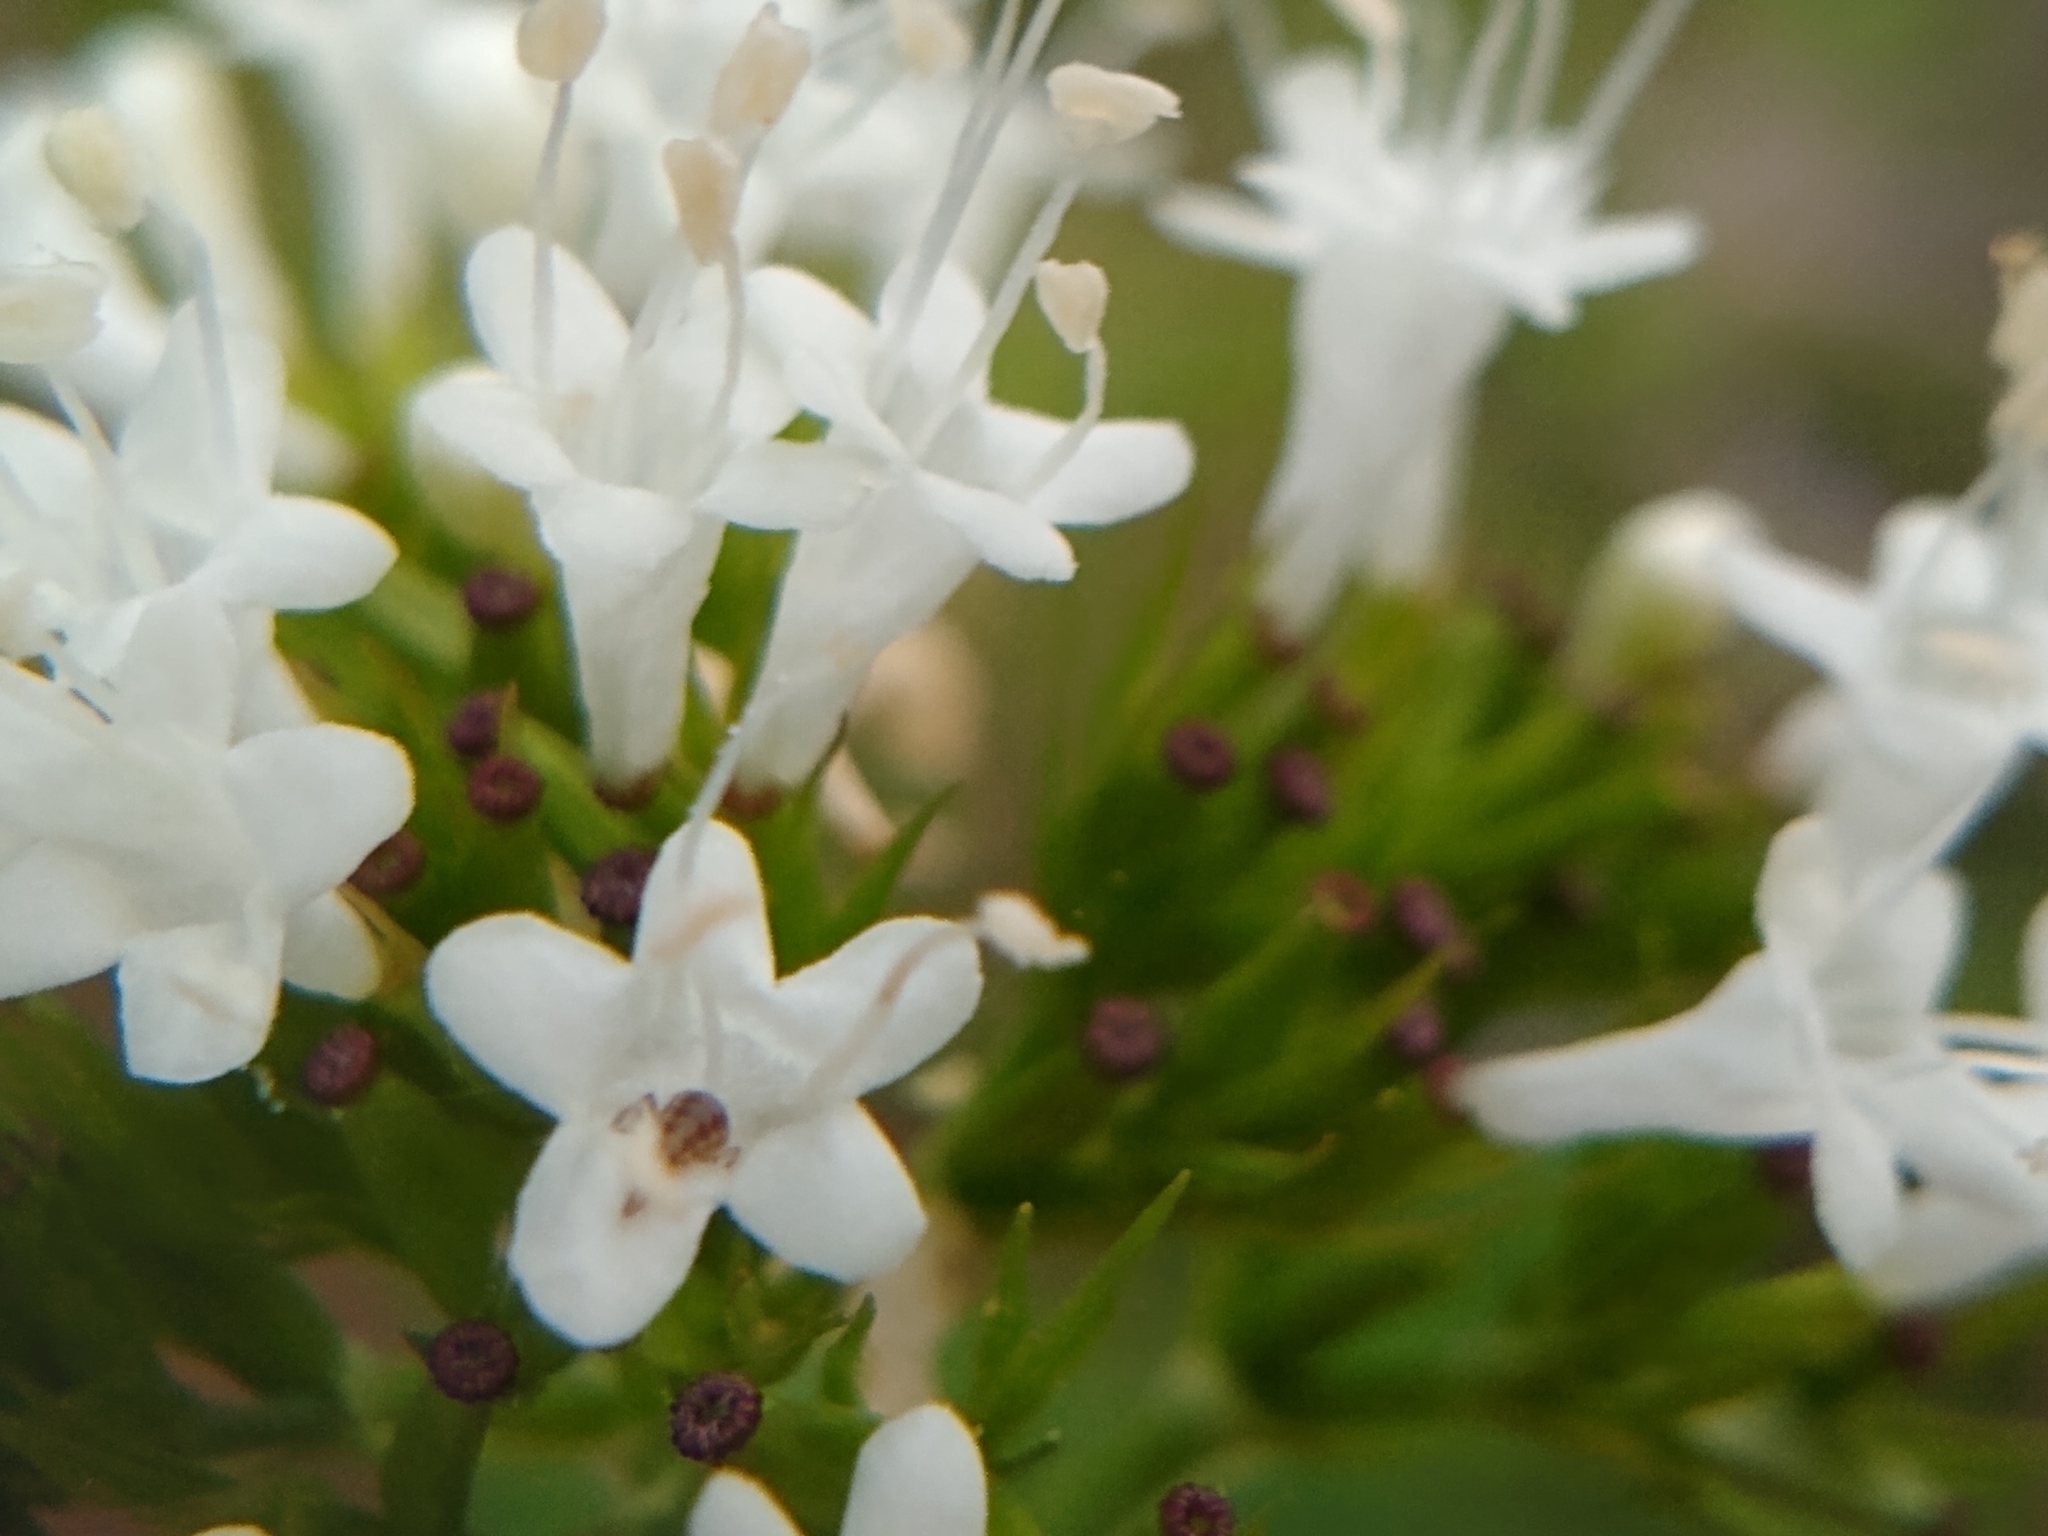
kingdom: Plantae
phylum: Tracheophyta
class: Magnoliopsida
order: Dipsacales
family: Caprifoliaceae
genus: Valeriana
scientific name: Valeriana sitchensis
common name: Pacific valerian
